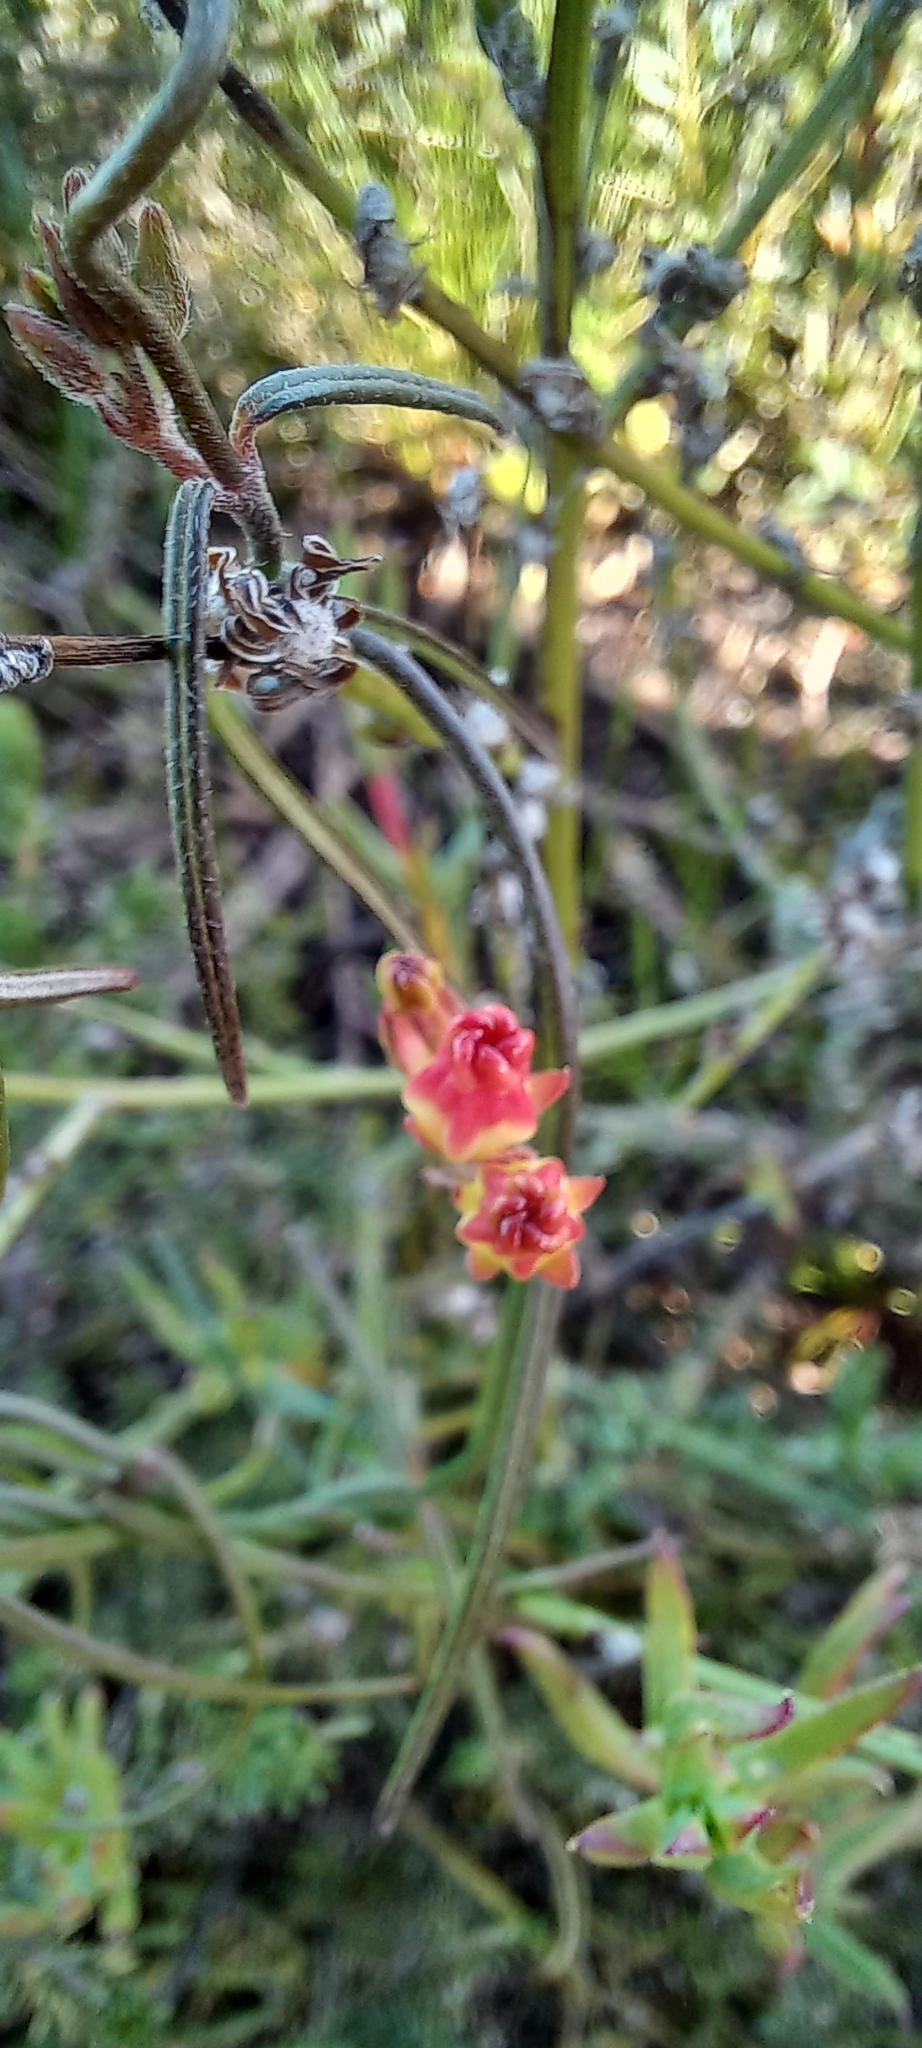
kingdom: Plantae
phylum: Tracheophyta
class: Magnoliopsida
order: Gentianales
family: Apocynaceae
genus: Microloma
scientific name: Microloma tenuifolium
